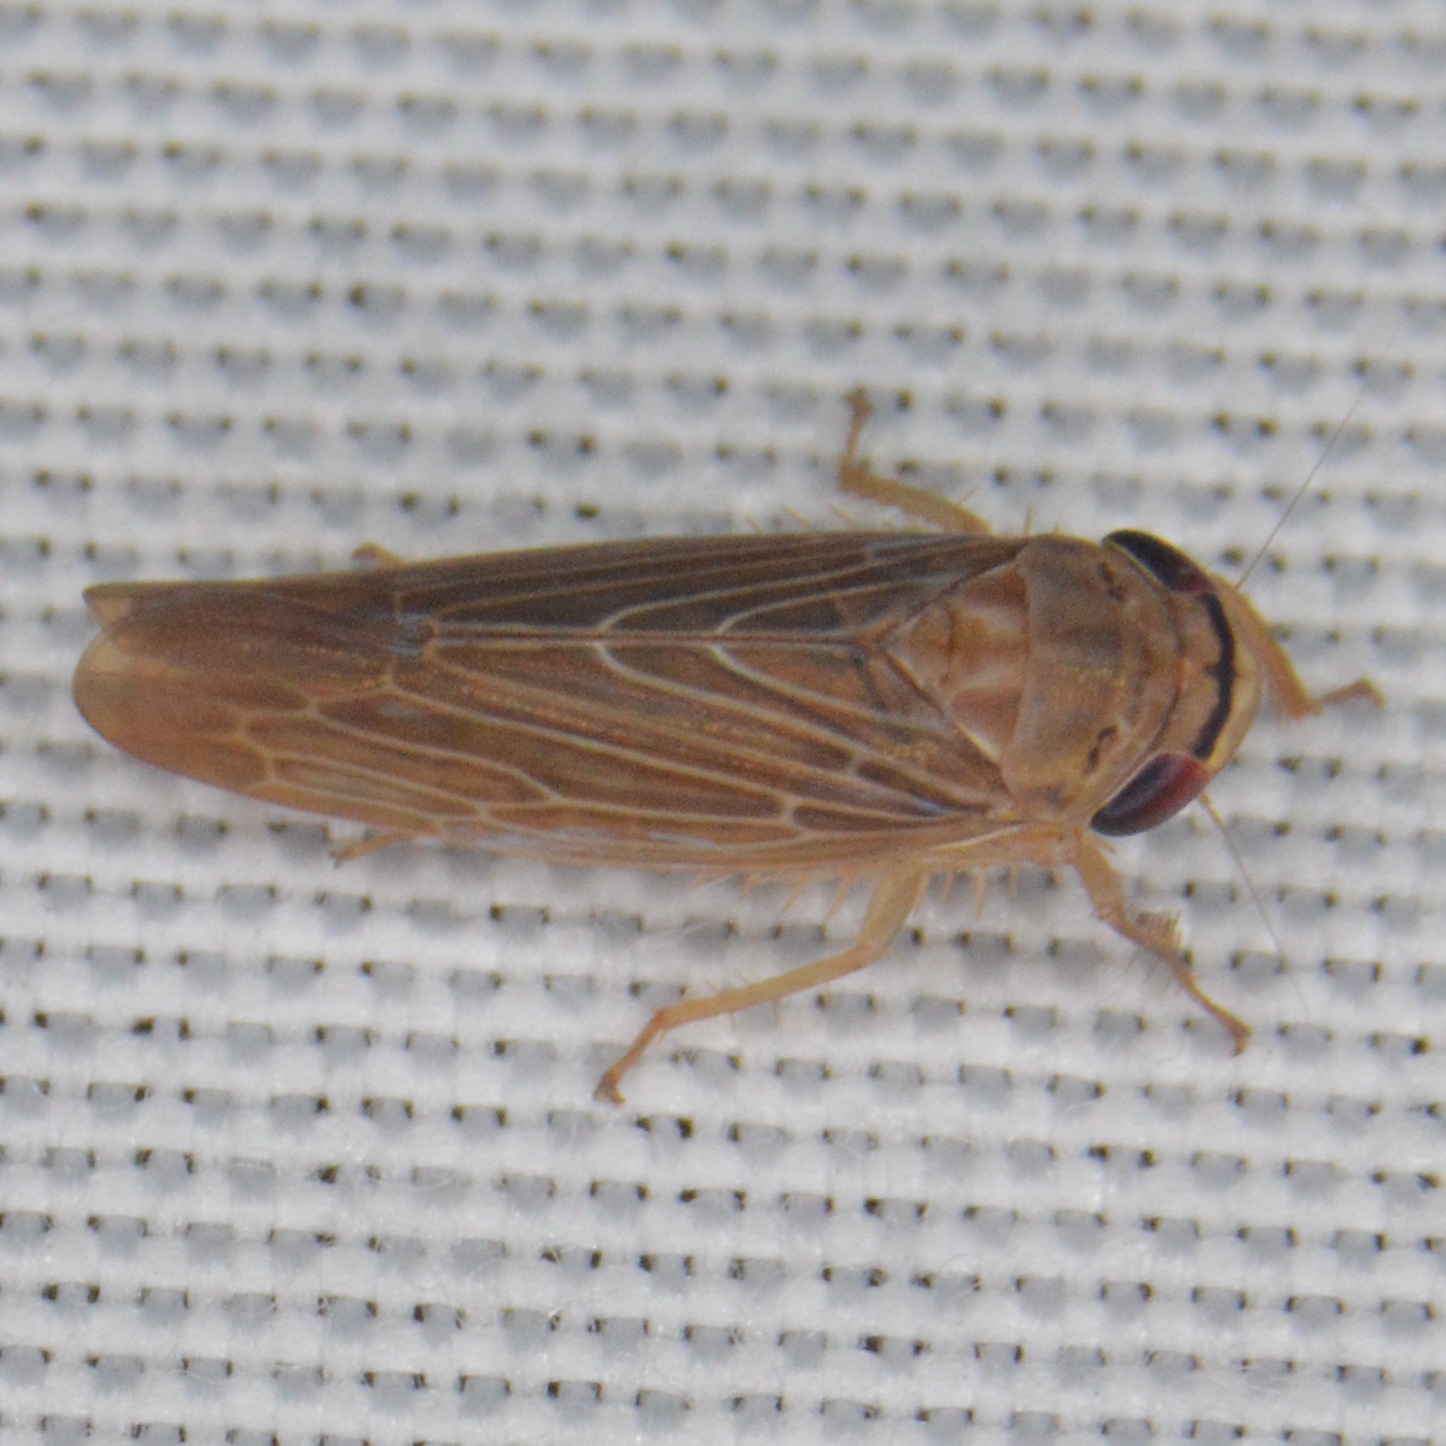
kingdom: Animalia
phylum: Arthropoda
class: Insecta
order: Hemiptera
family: Cicadellidae
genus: Chlorotettix
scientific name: Chlorotettix necopinus
